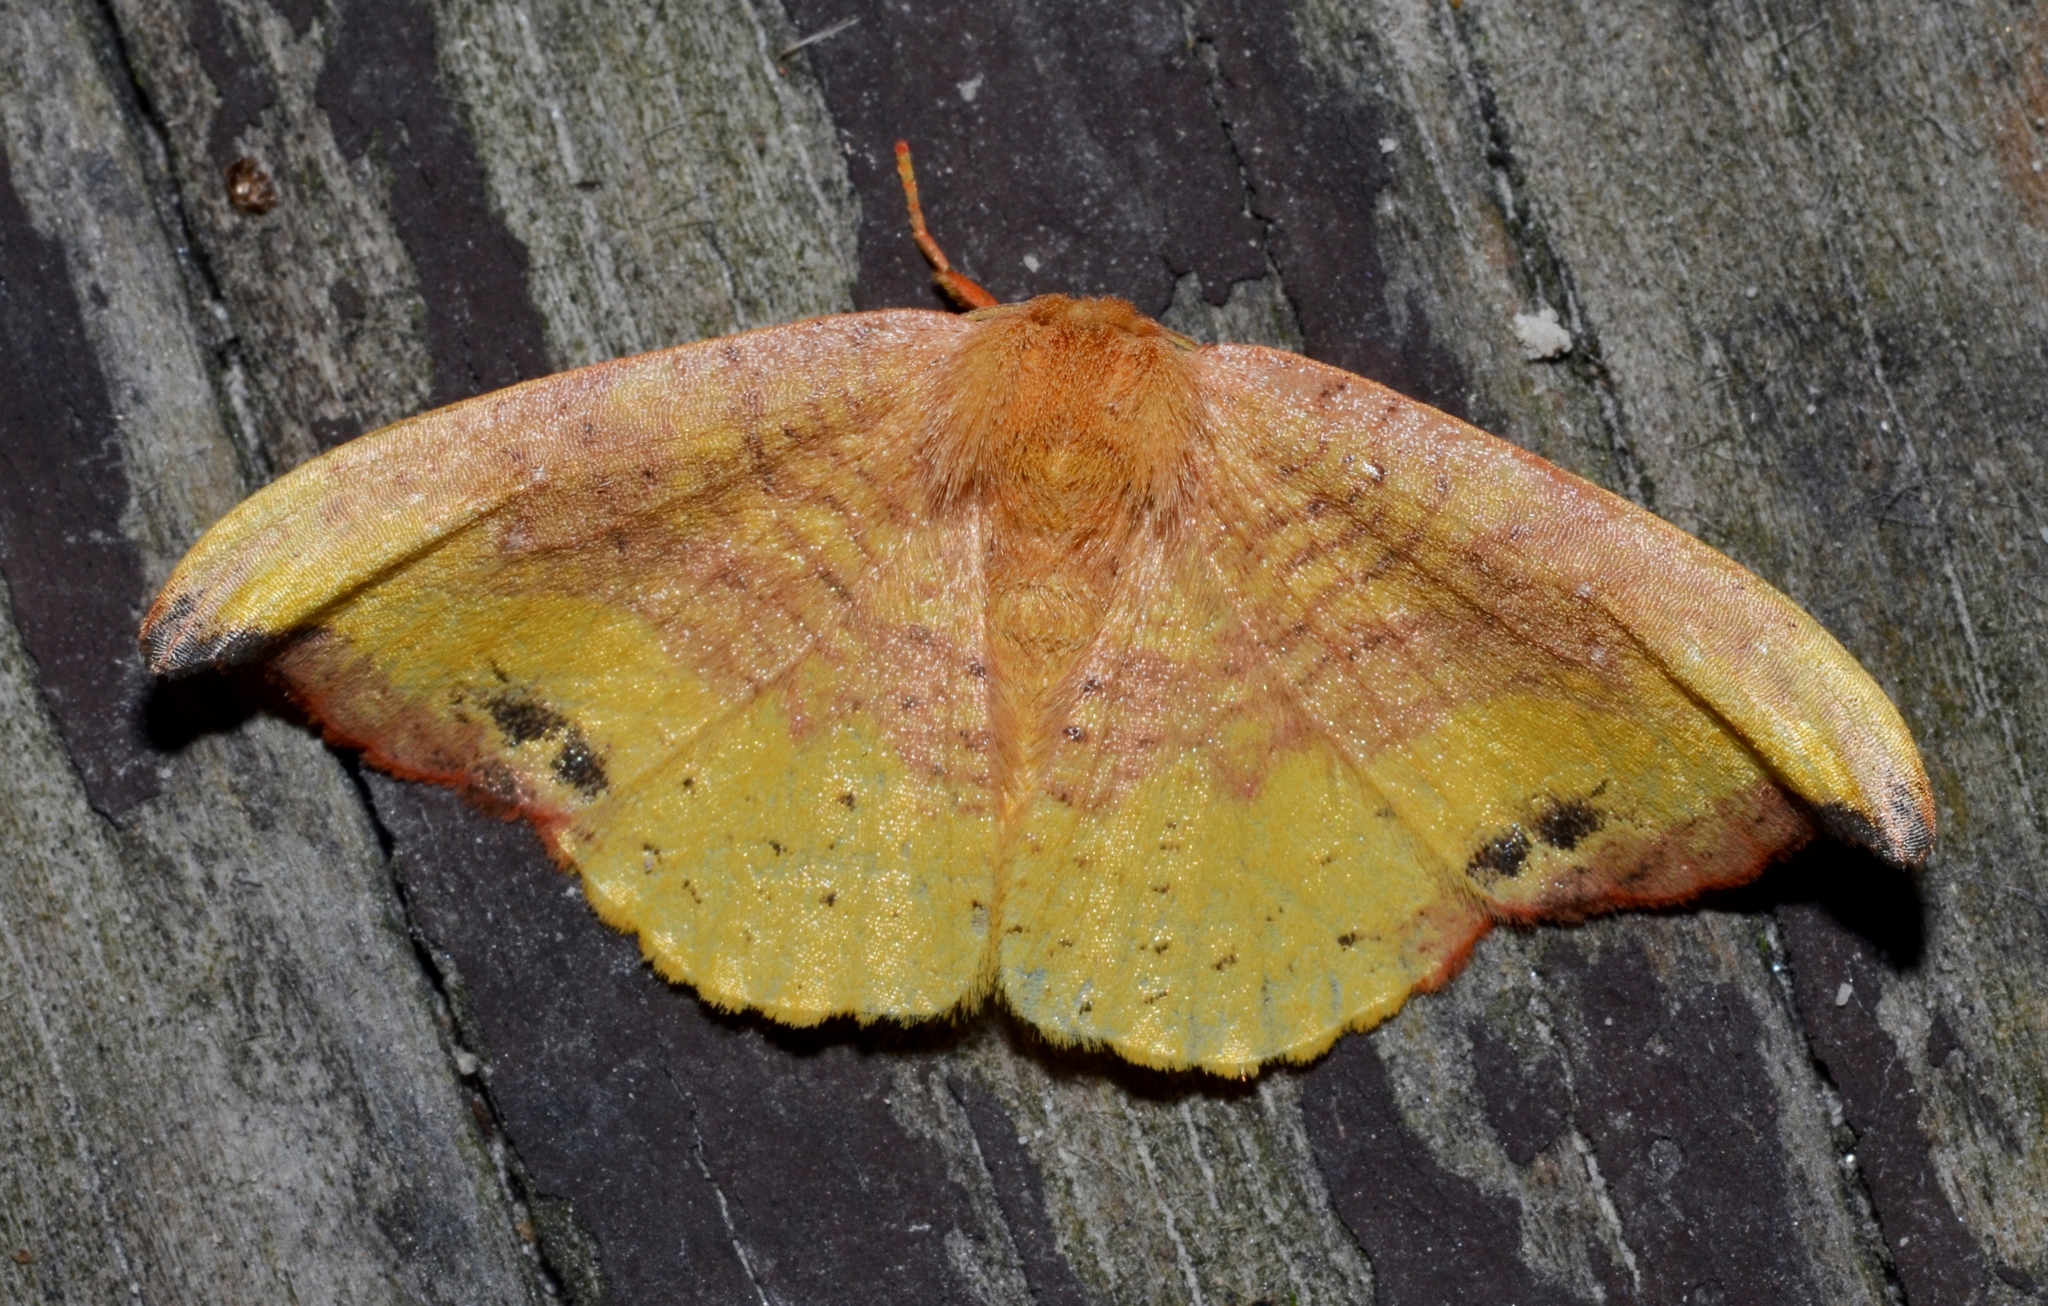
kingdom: Animalia
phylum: Arthropoda
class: Insecta
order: Lepidoptera
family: Drepanidae
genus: Oreta
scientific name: Oreta rosea
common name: Rose hooktip
